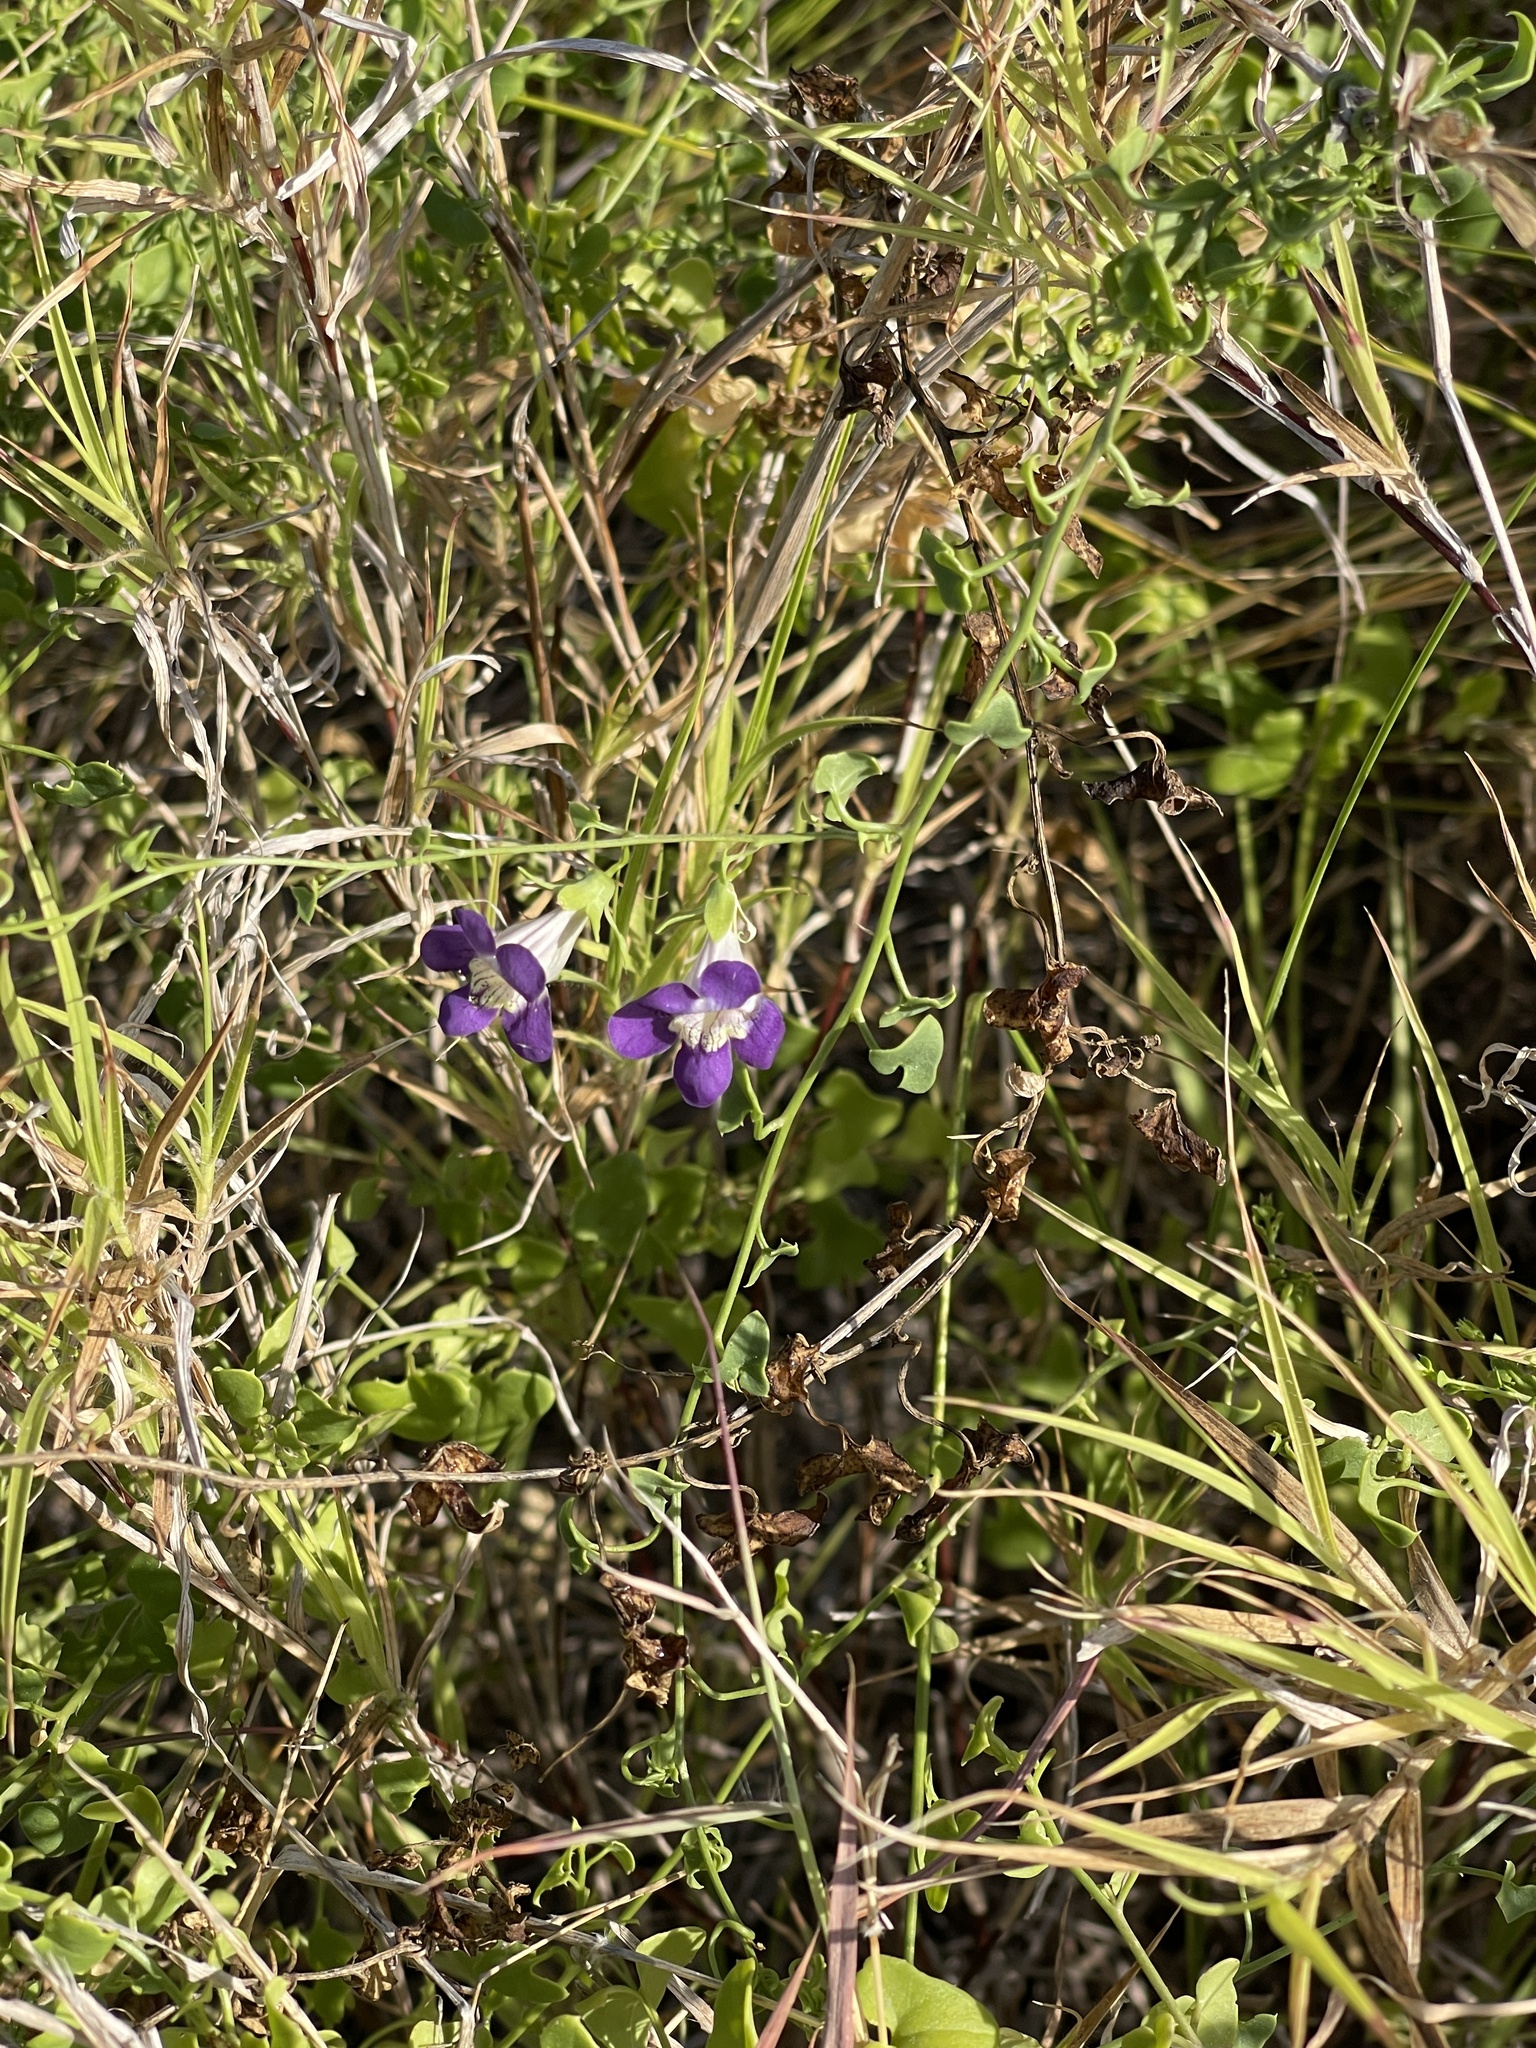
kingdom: Plantae
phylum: Tracheophyta
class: Magnoliopsida
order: Lamiales
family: Plantaginaceae
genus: Maurandella
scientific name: Maurandella antirrhiniflora
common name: Violet twining-snapdragon
